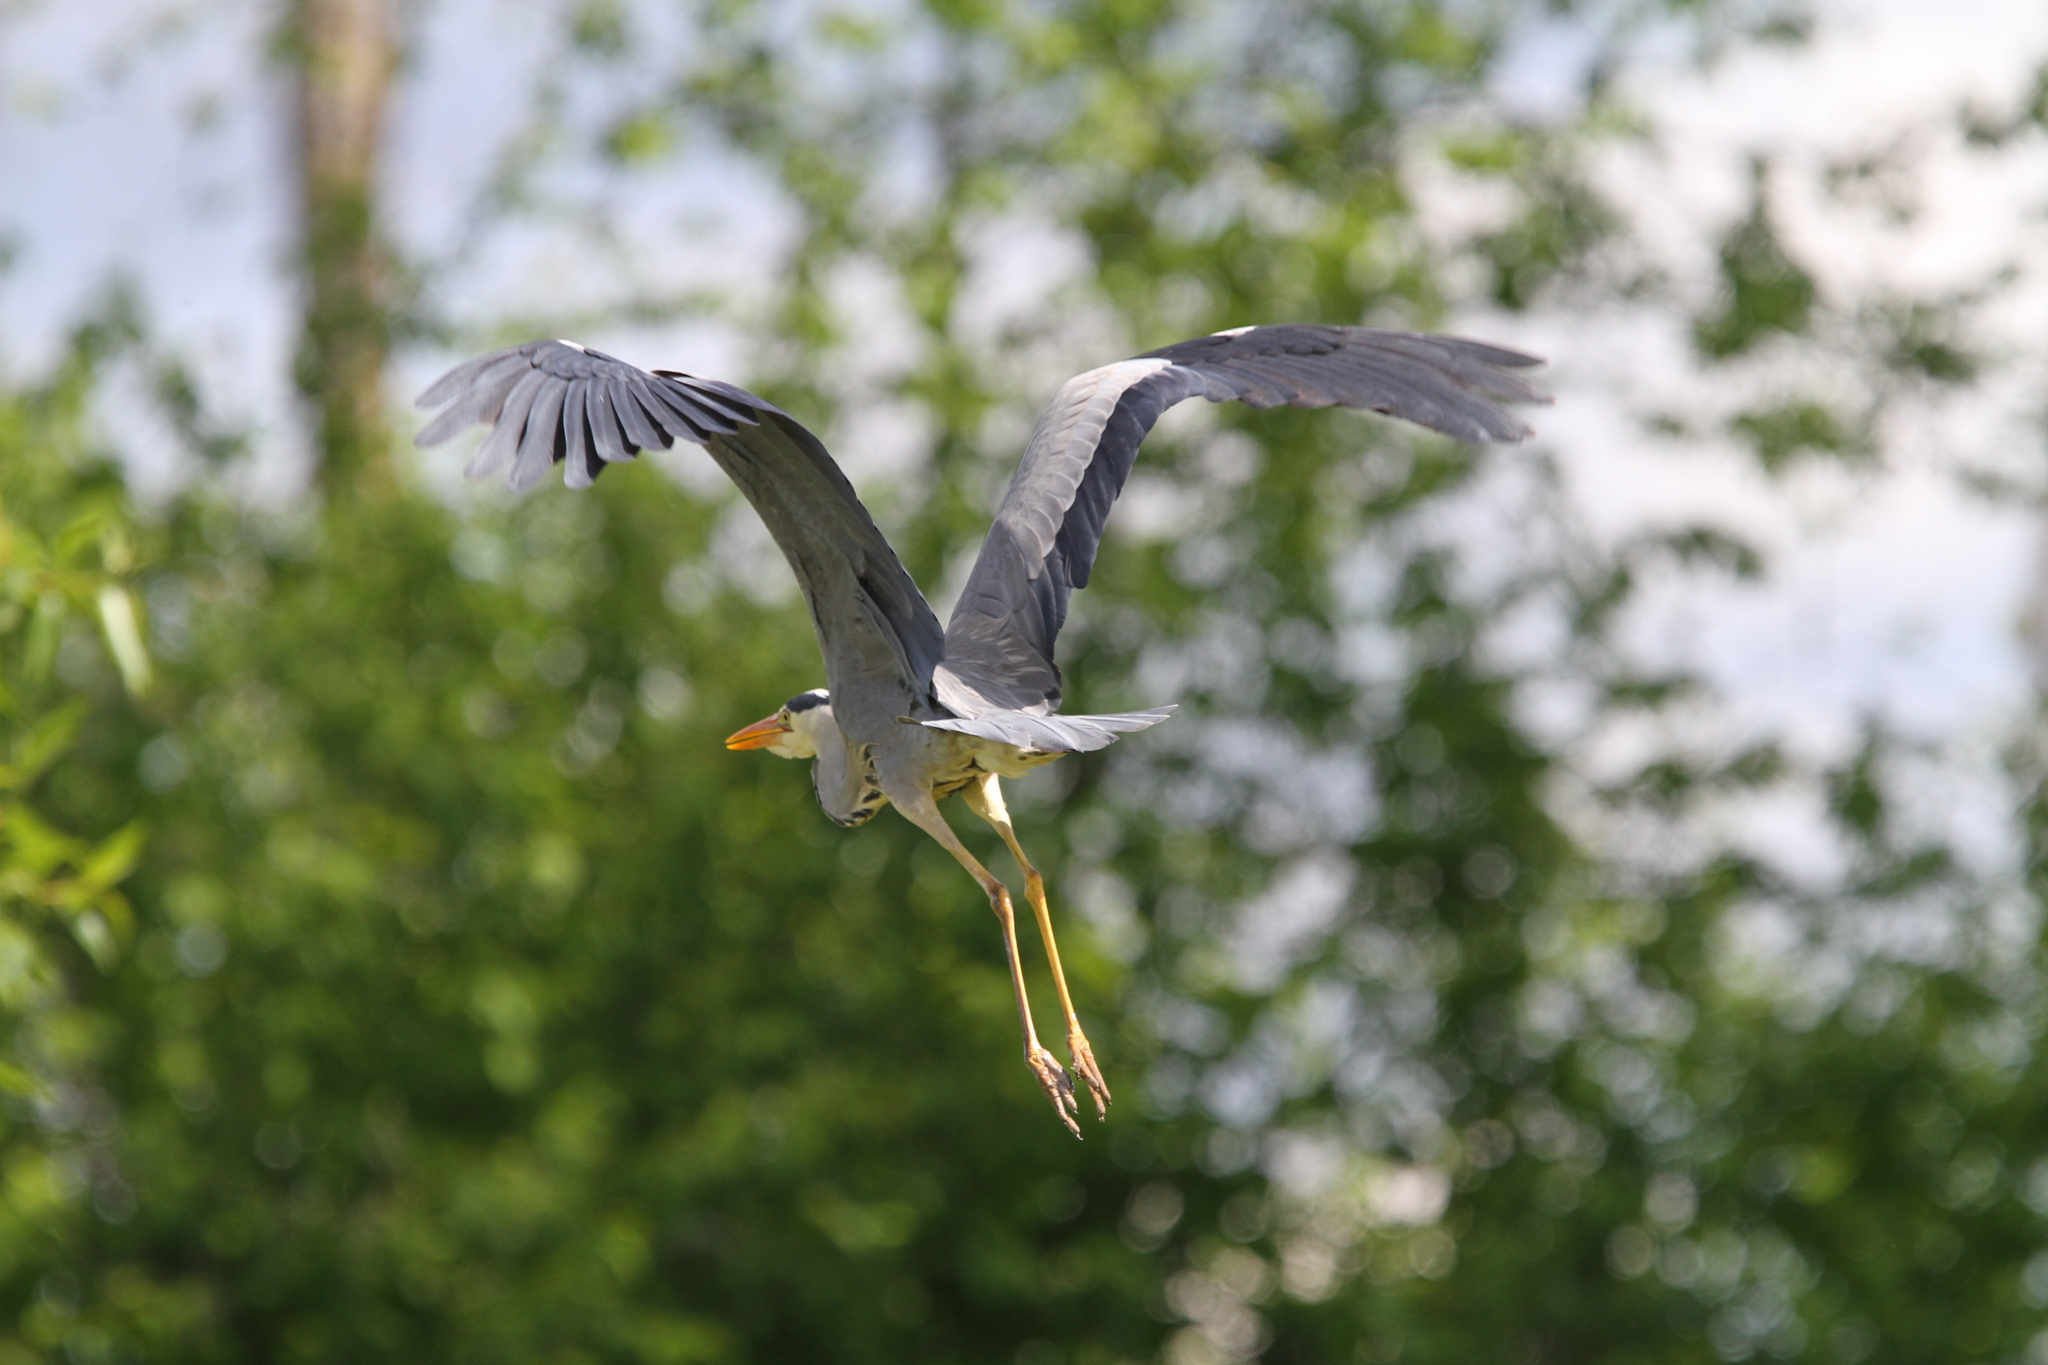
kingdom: Animalia
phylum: Chordata
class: Aves
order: Pelecaniformes
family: Ardeidae
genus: Ardea
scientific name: Ardea cinerea
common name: Grey heron
